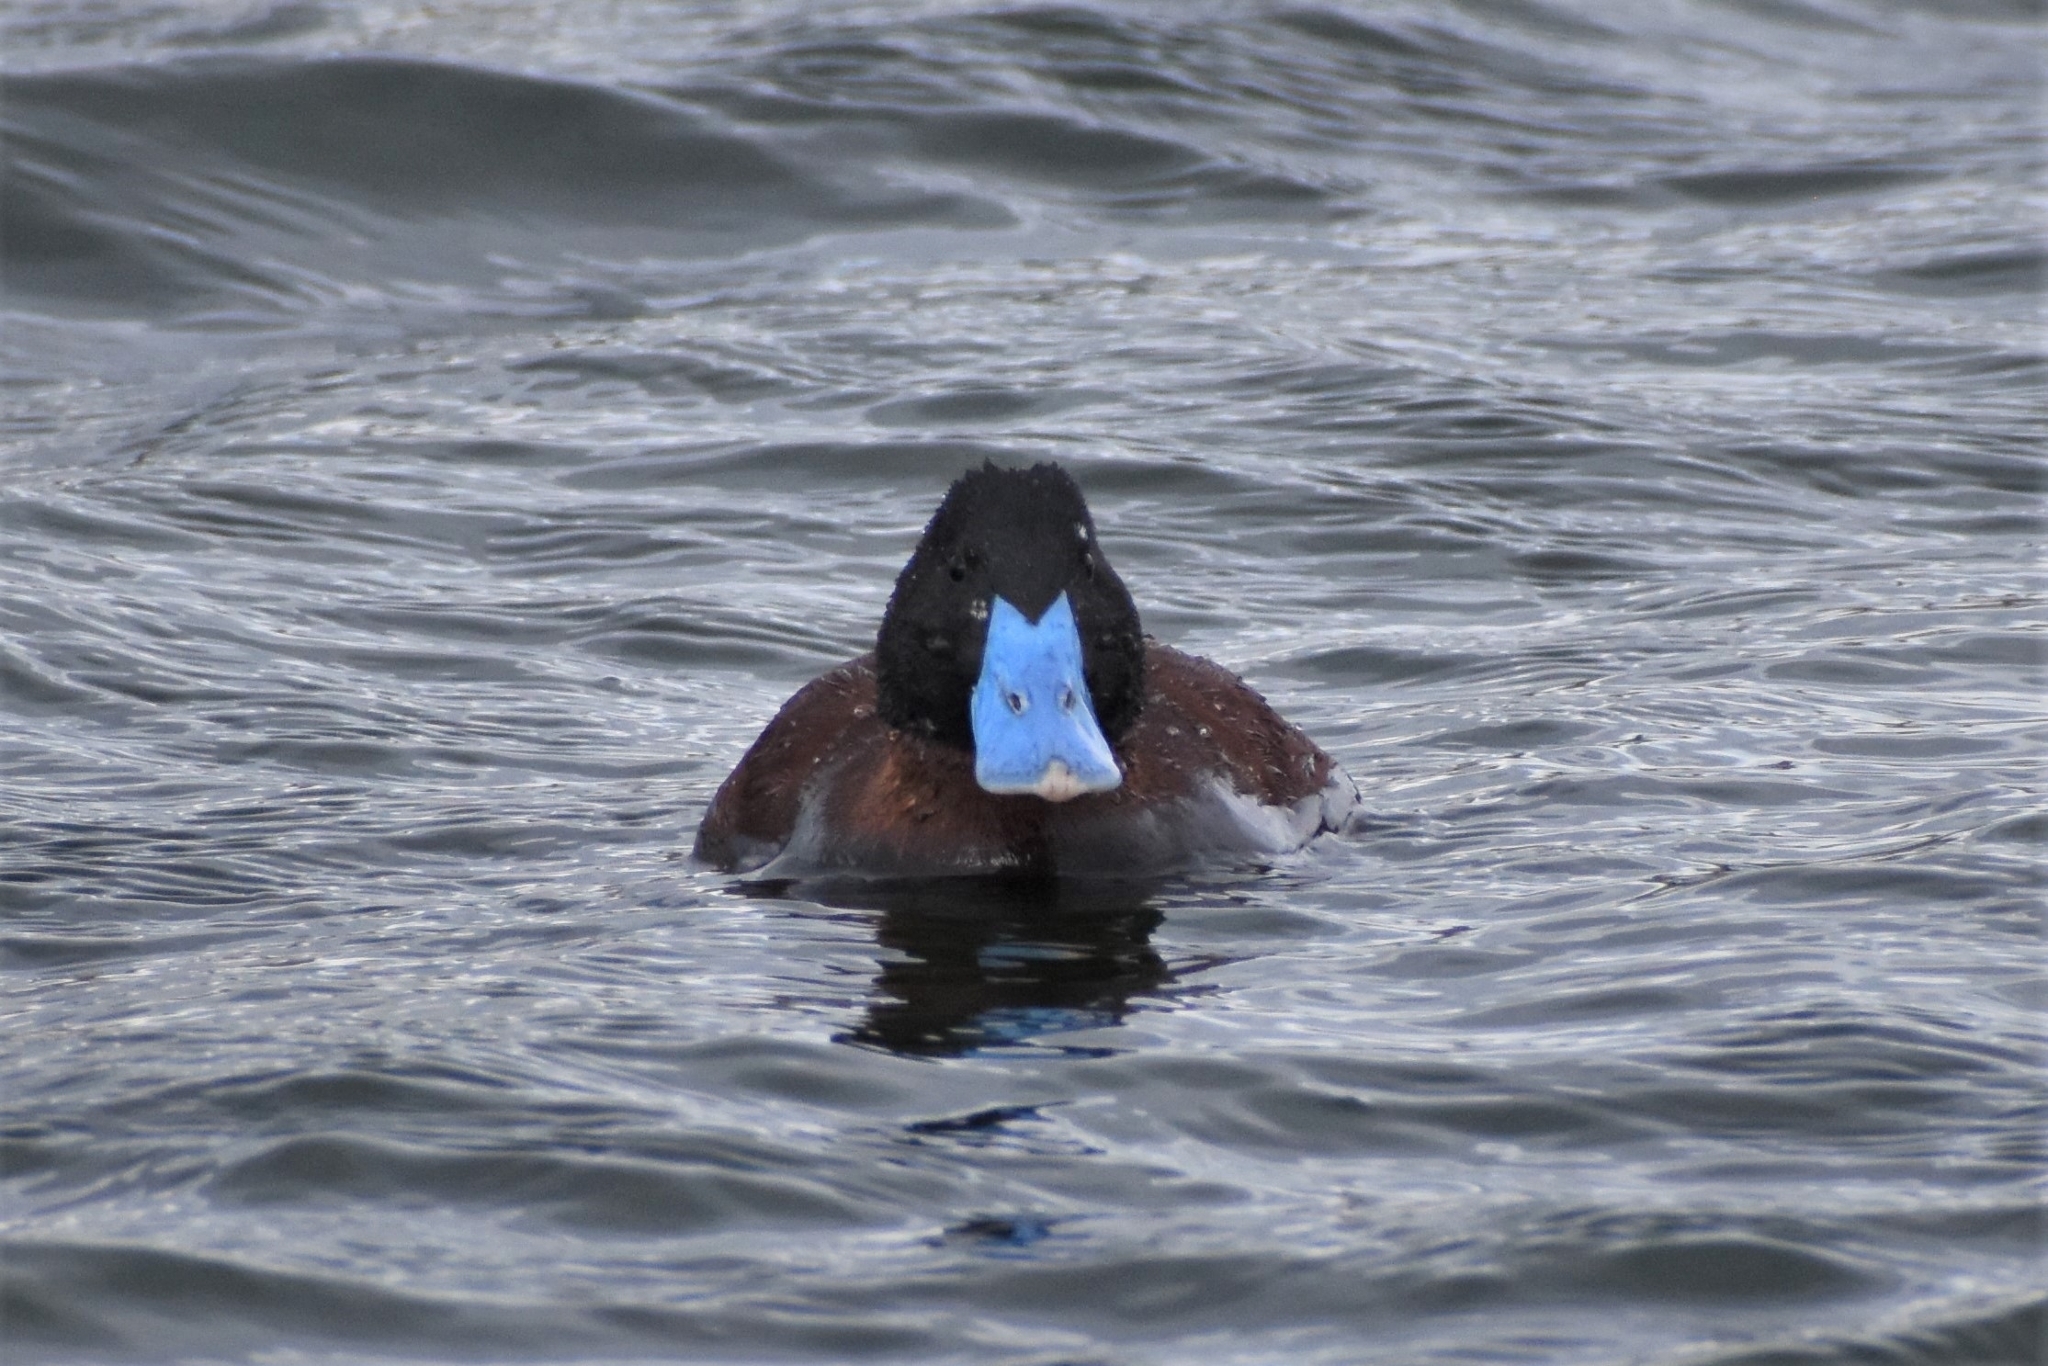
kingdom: Animalia
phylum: Chordata
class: Aves
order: Anseriformes
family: Anatidae
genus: Oxyura
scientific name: Oxyura ferruginea
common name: Andean duck
